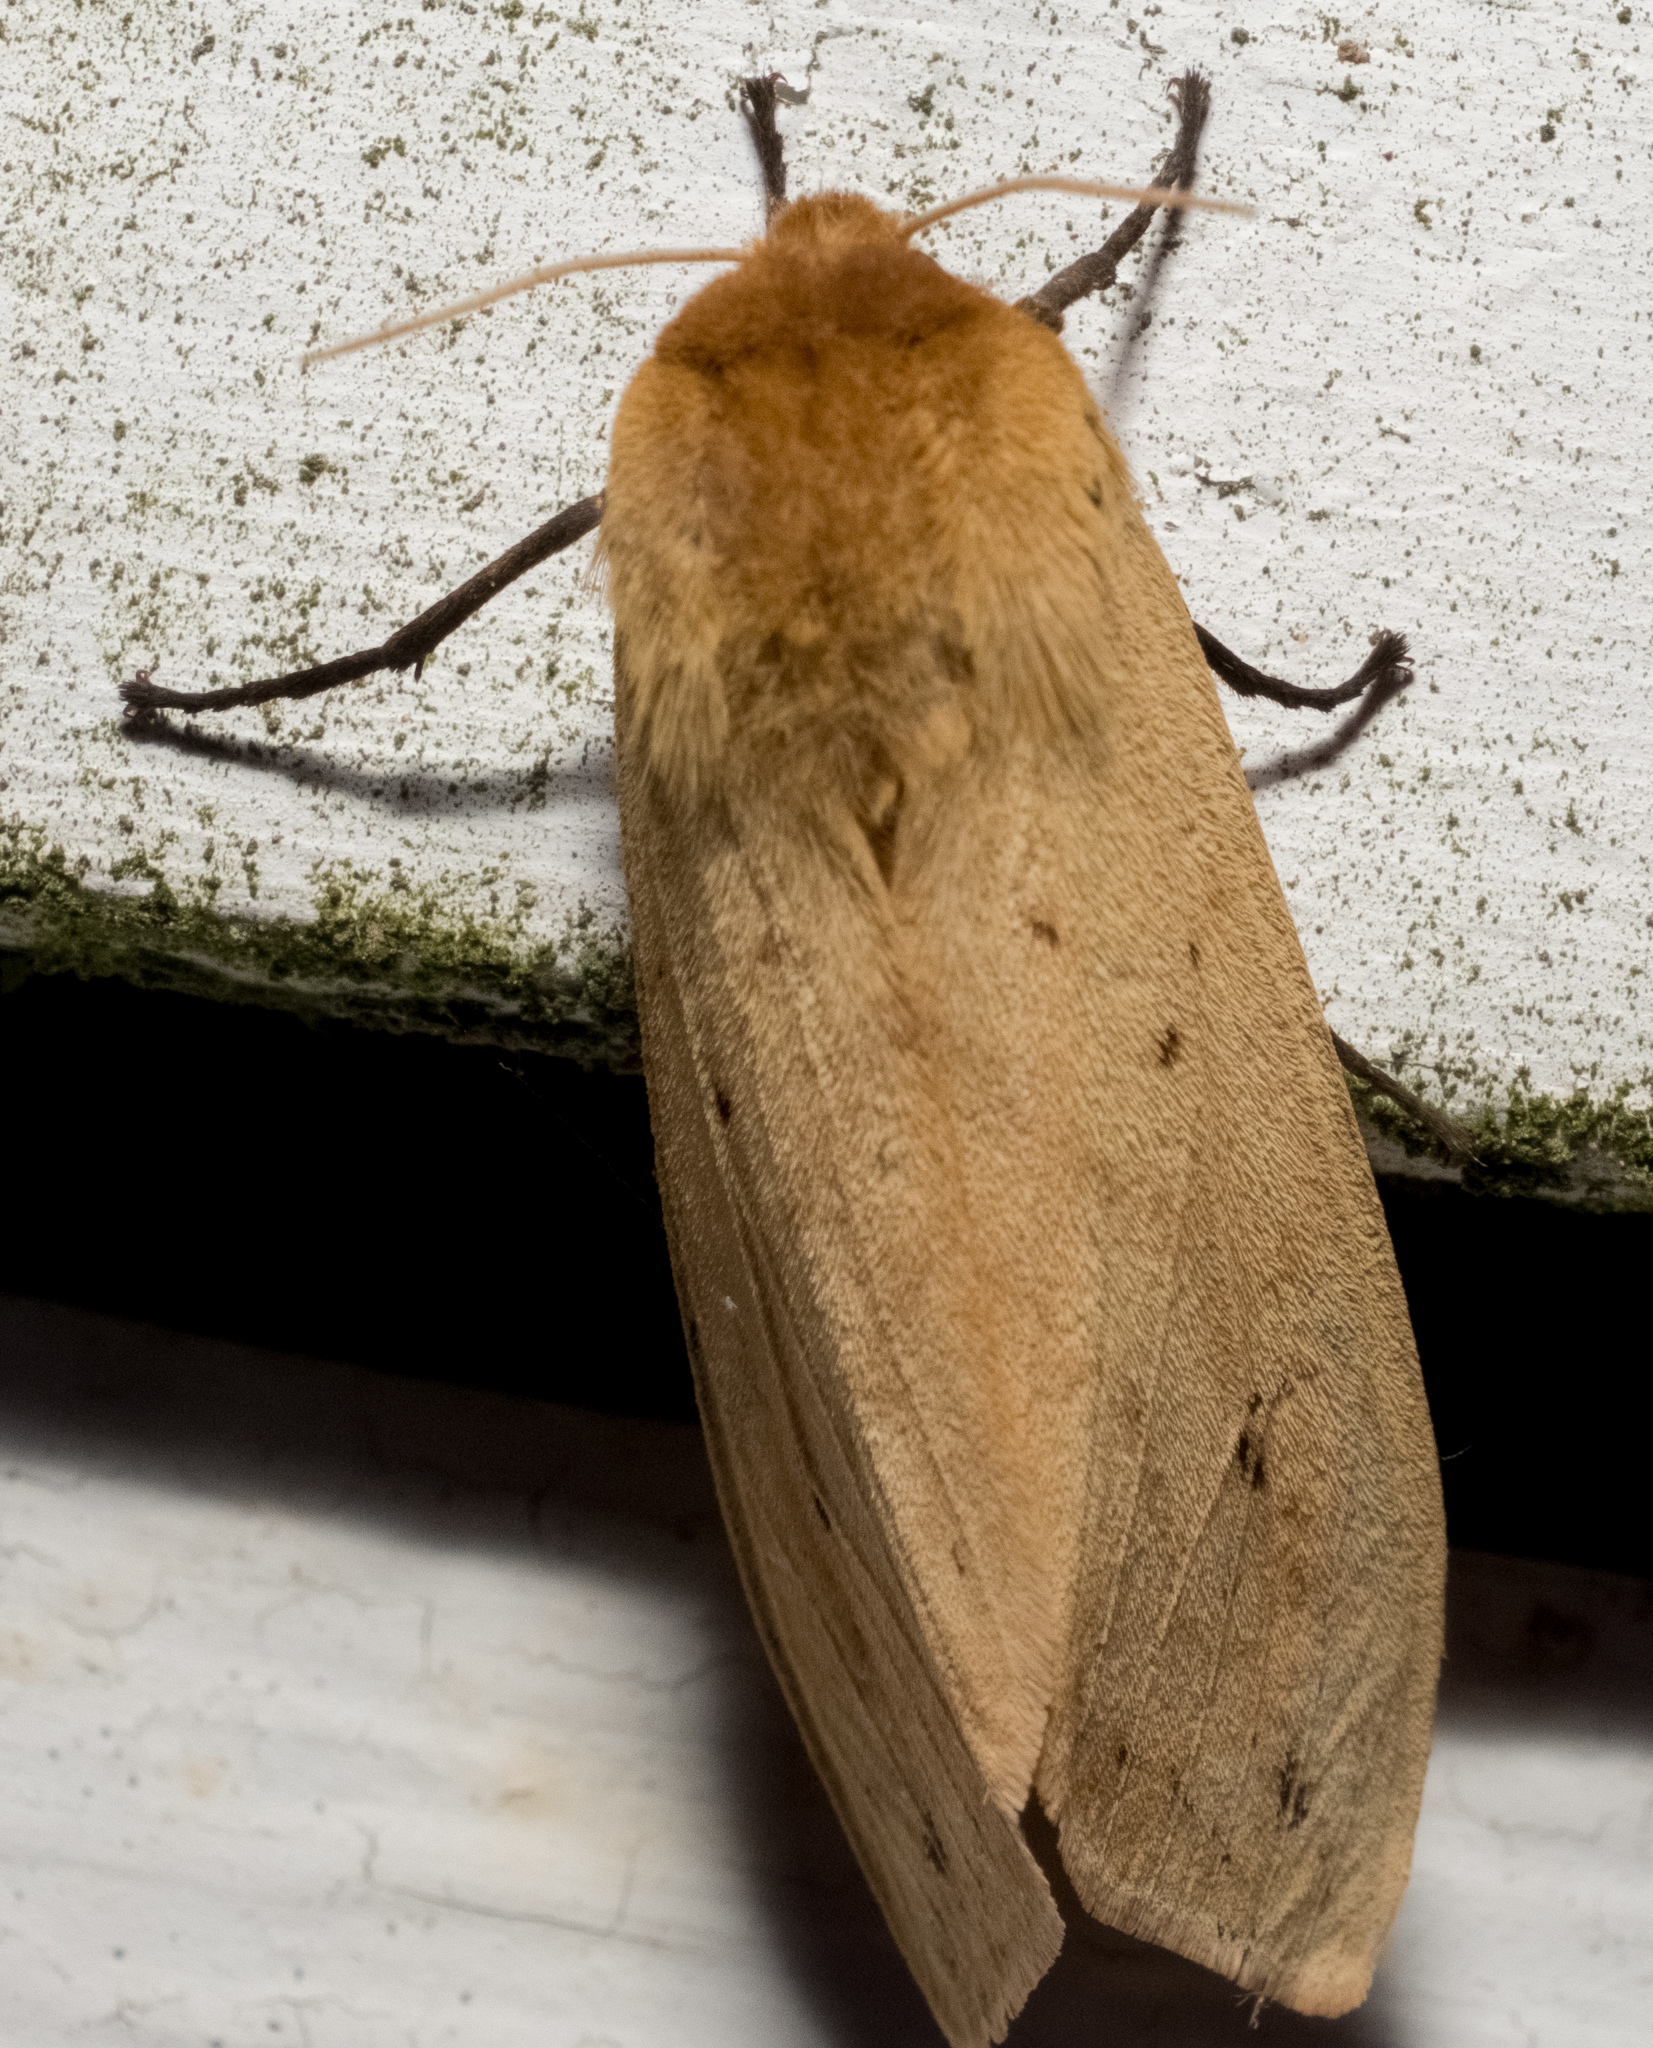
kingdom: Animalia
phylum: Arthropoda
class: Insecta
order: Lepidoptera
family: Erebidae
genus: Pyrrharctia
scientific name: Pyrrharctia isabella
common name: Isabella tiger moth
